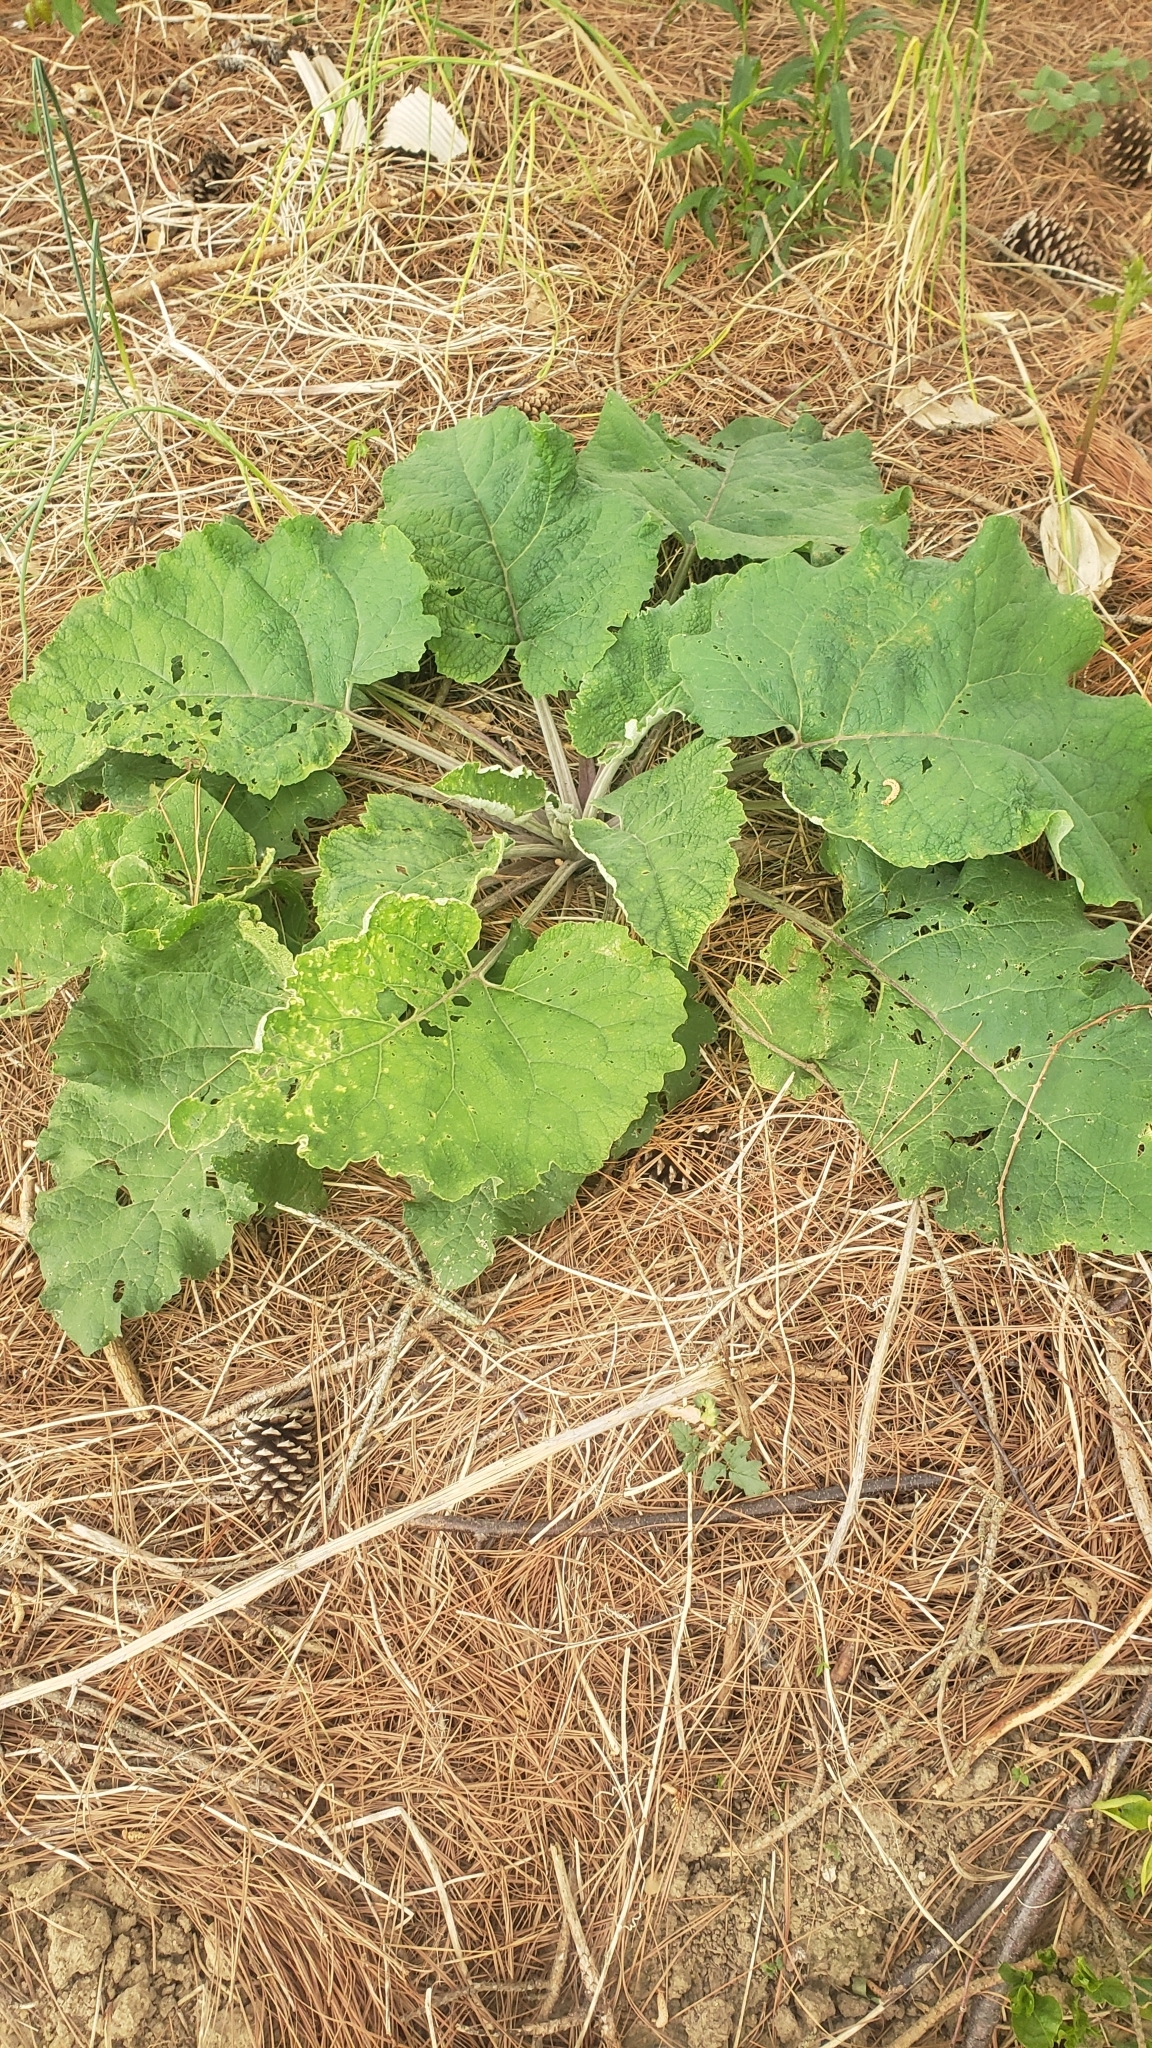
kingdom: Plantae
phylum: Tracheophyta
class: Magnoliopsida
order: Asterales
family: Asteraceae
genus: Arctium
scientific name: Arctium
